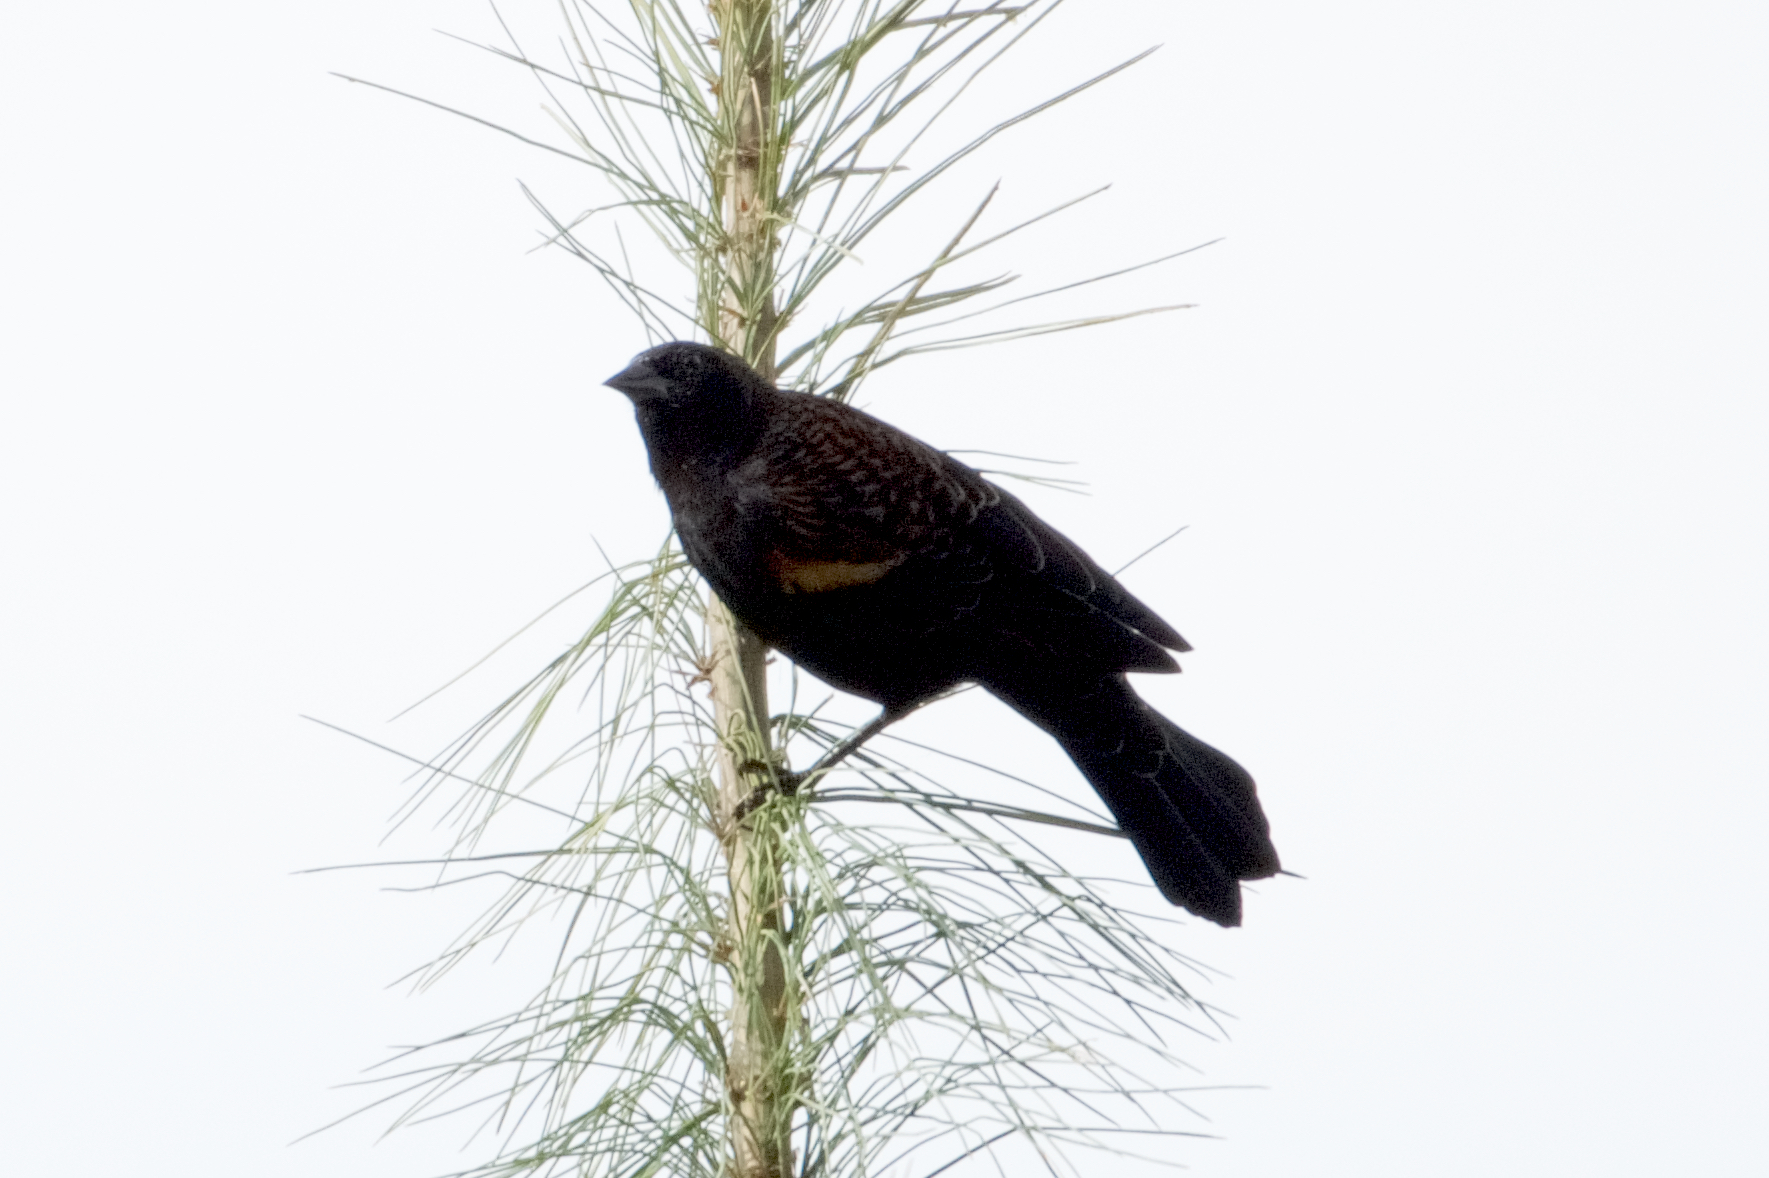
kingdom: Animalia
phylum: Chordata
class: Aves
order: Passeriformes
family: Icteridae
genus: Agelaius
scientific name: Agelaius phoeniceus
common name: Red-winged blackbird
